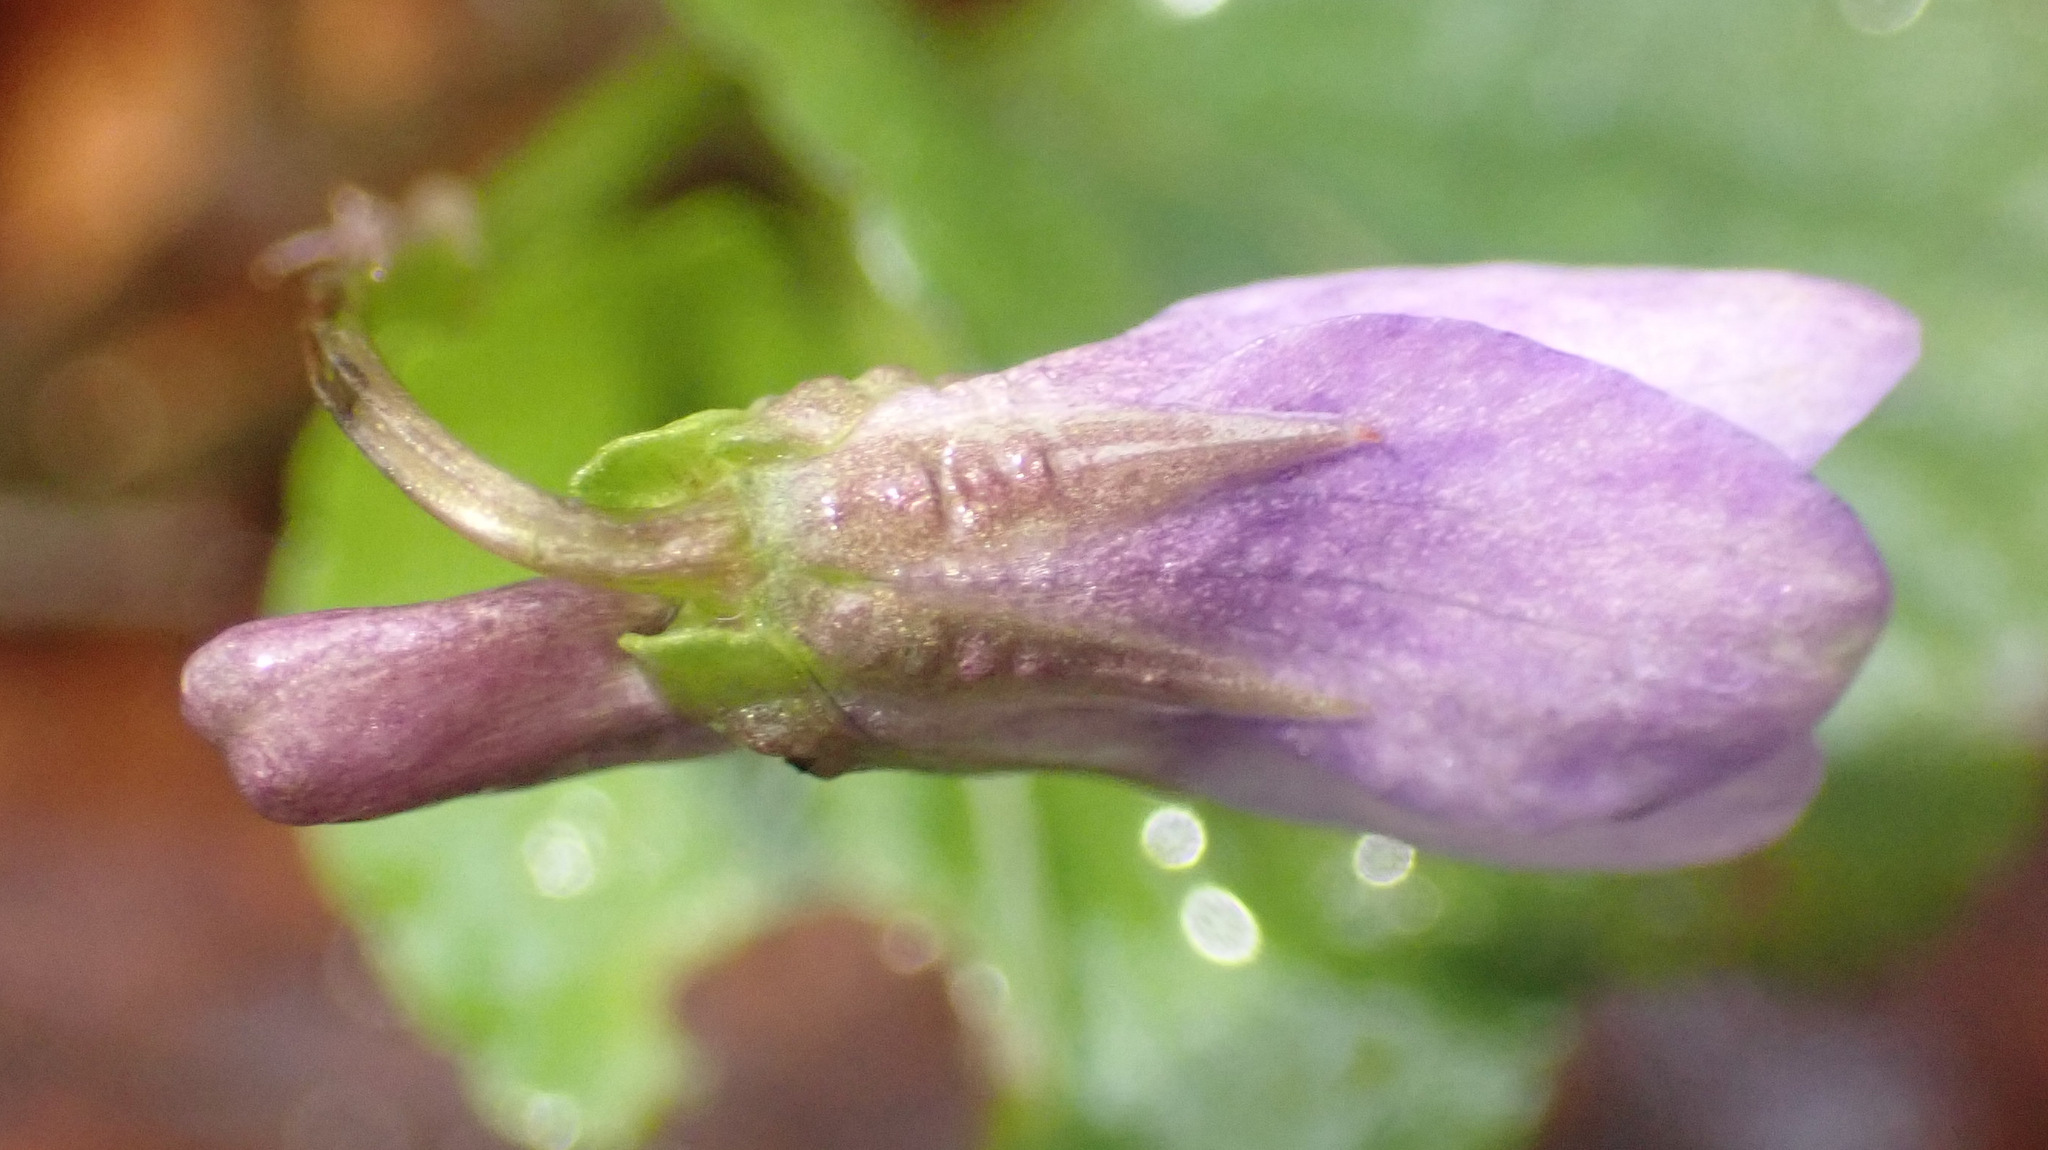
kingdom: Plantae
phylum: Tracheophyta
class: Magnoliopsida
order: Malpighiales
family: Violaceae
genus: Viola
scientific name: Viola reichenbachiana
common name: Early dog-violet
